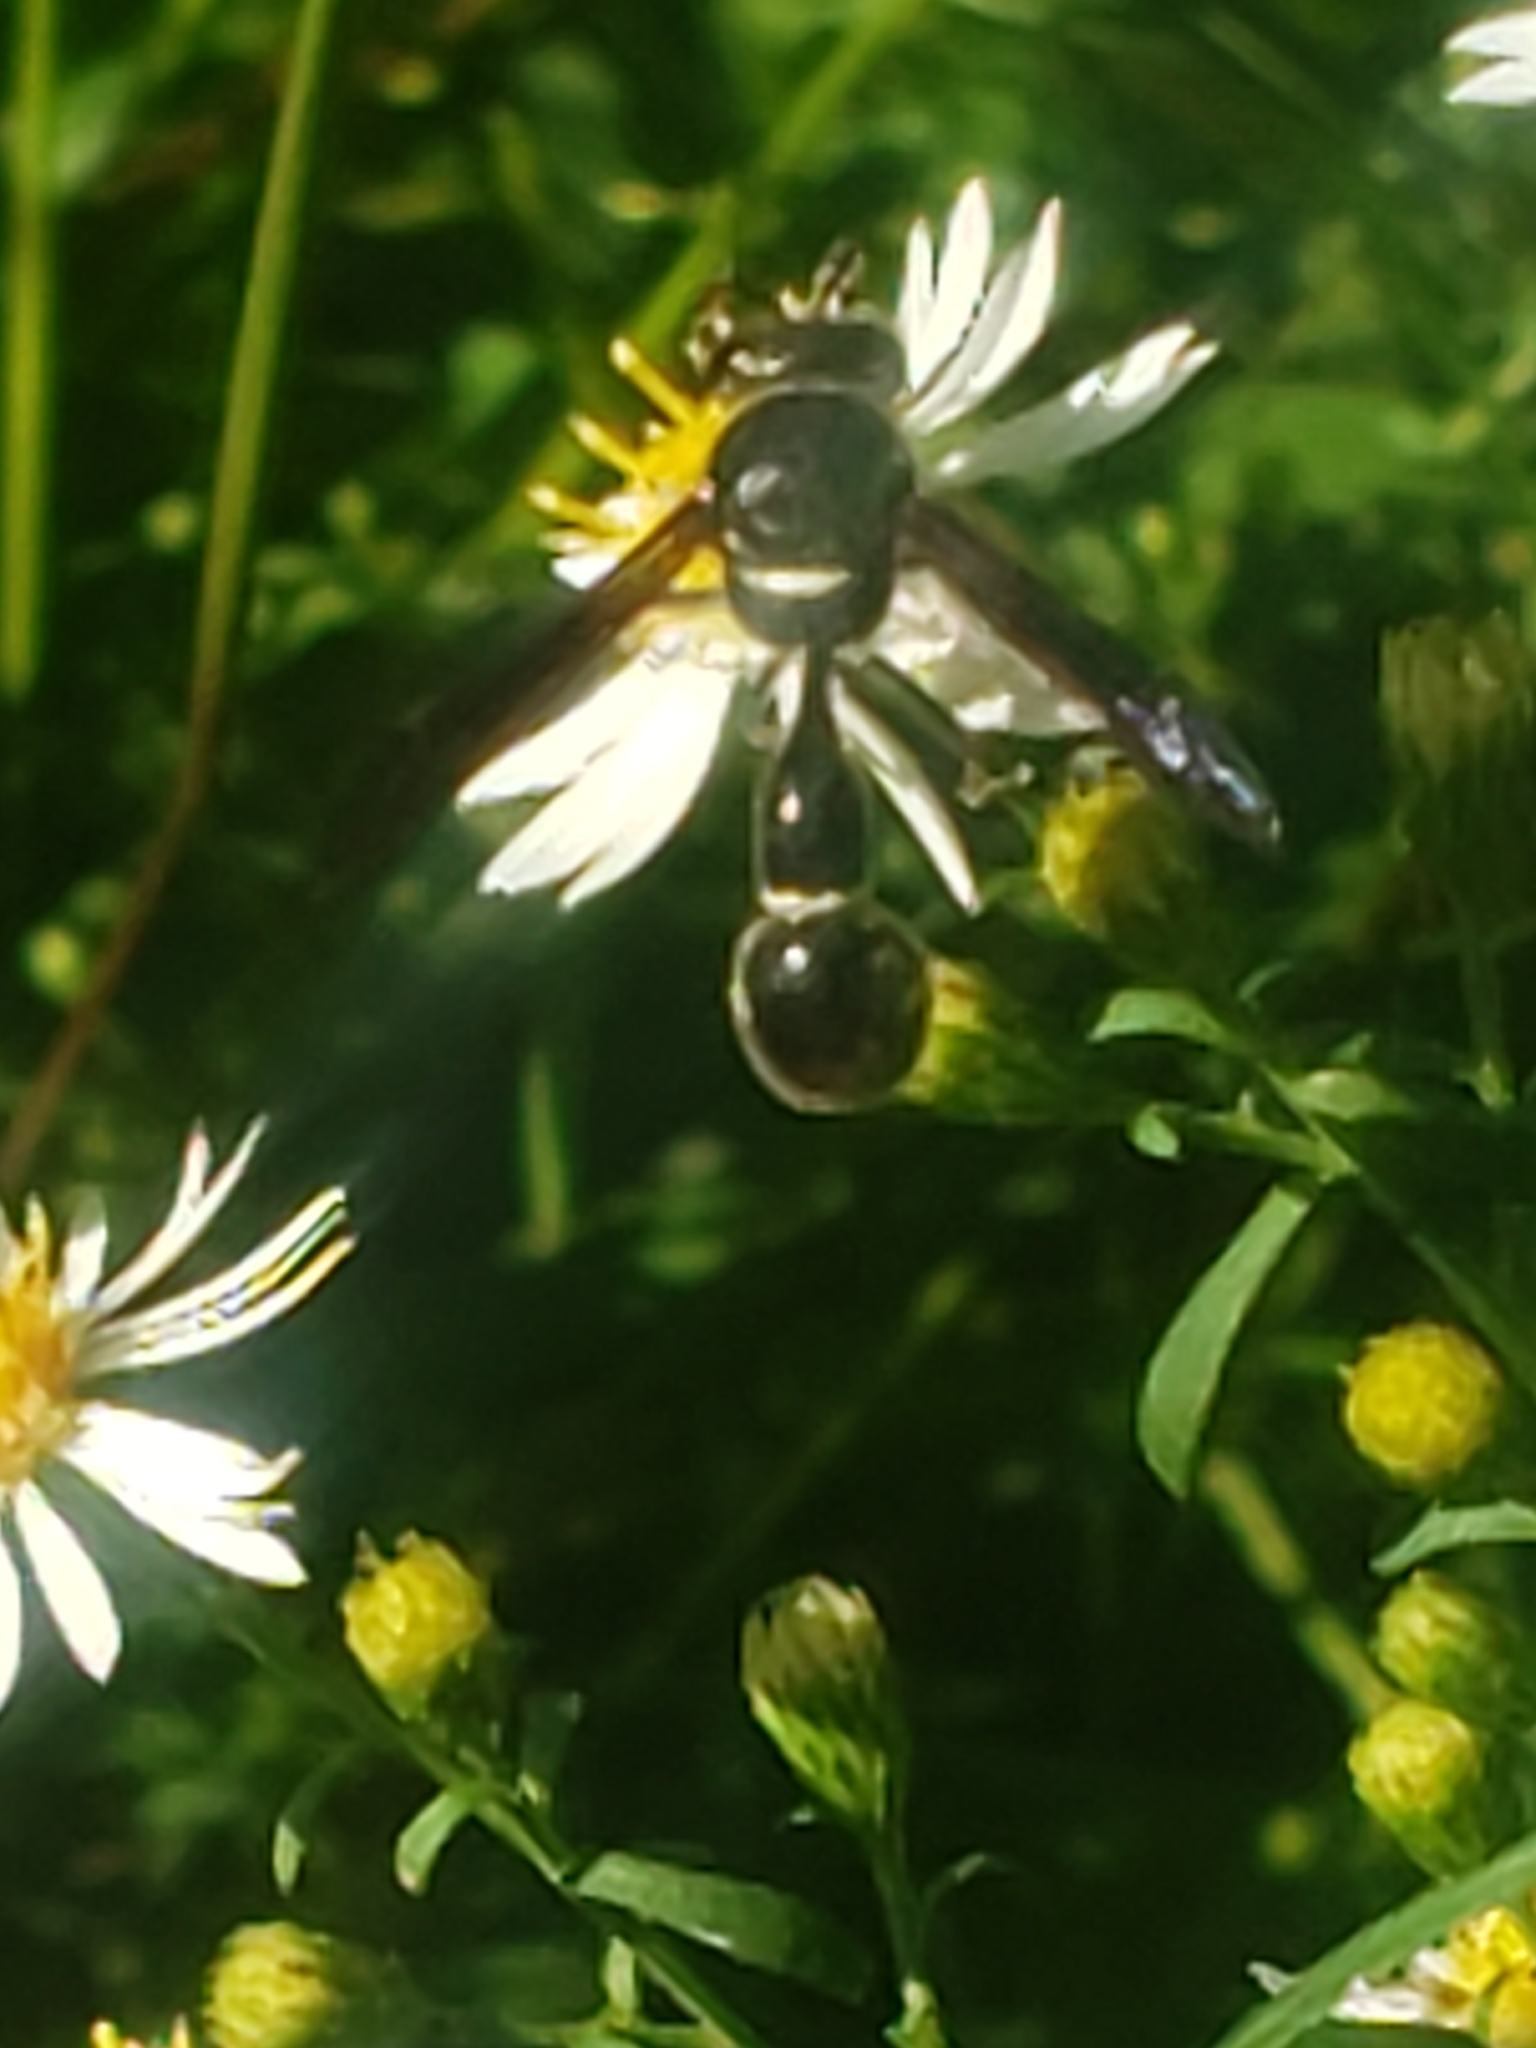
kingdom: Animalia
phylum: Arthropoda
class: Insecta
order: Hymenoptera
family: Vespidae
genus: Eumenes
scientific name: Eumenes fraternus
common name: Fraternal potter wasp
